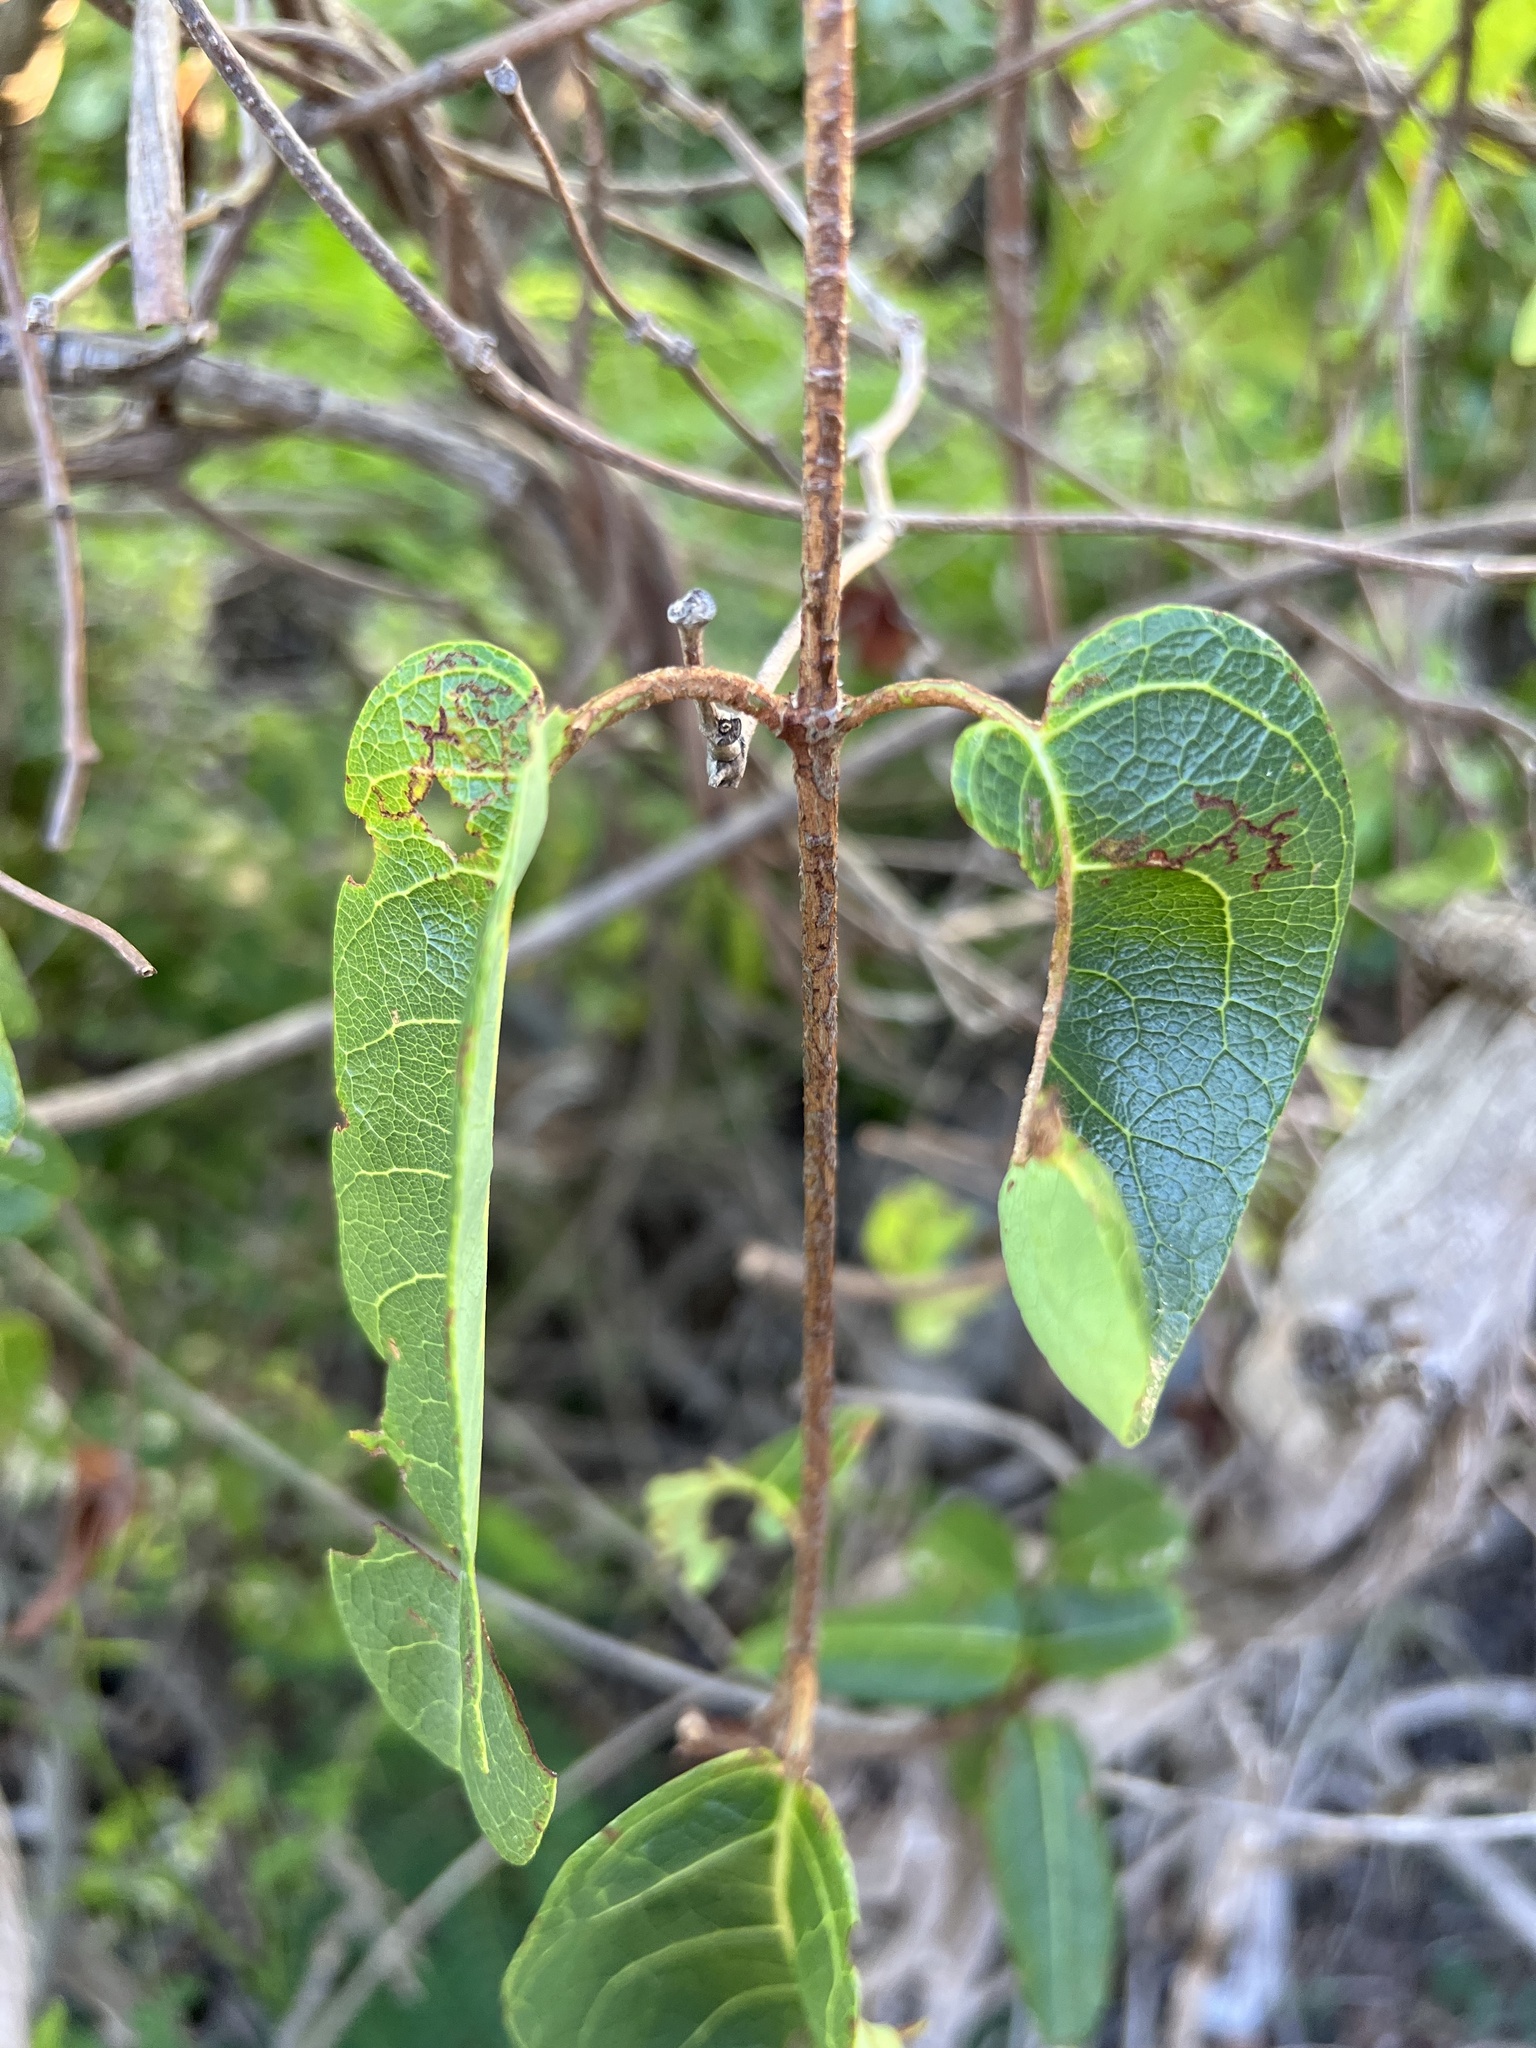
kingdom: Plantae
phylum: Tracheophyta
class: Magnoliopsida
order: Malpighiales
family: Malpighiaceae
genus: Stigmaphyllon
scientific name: Stigmaphyllon emarginatum
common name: Monarch amazonvine
